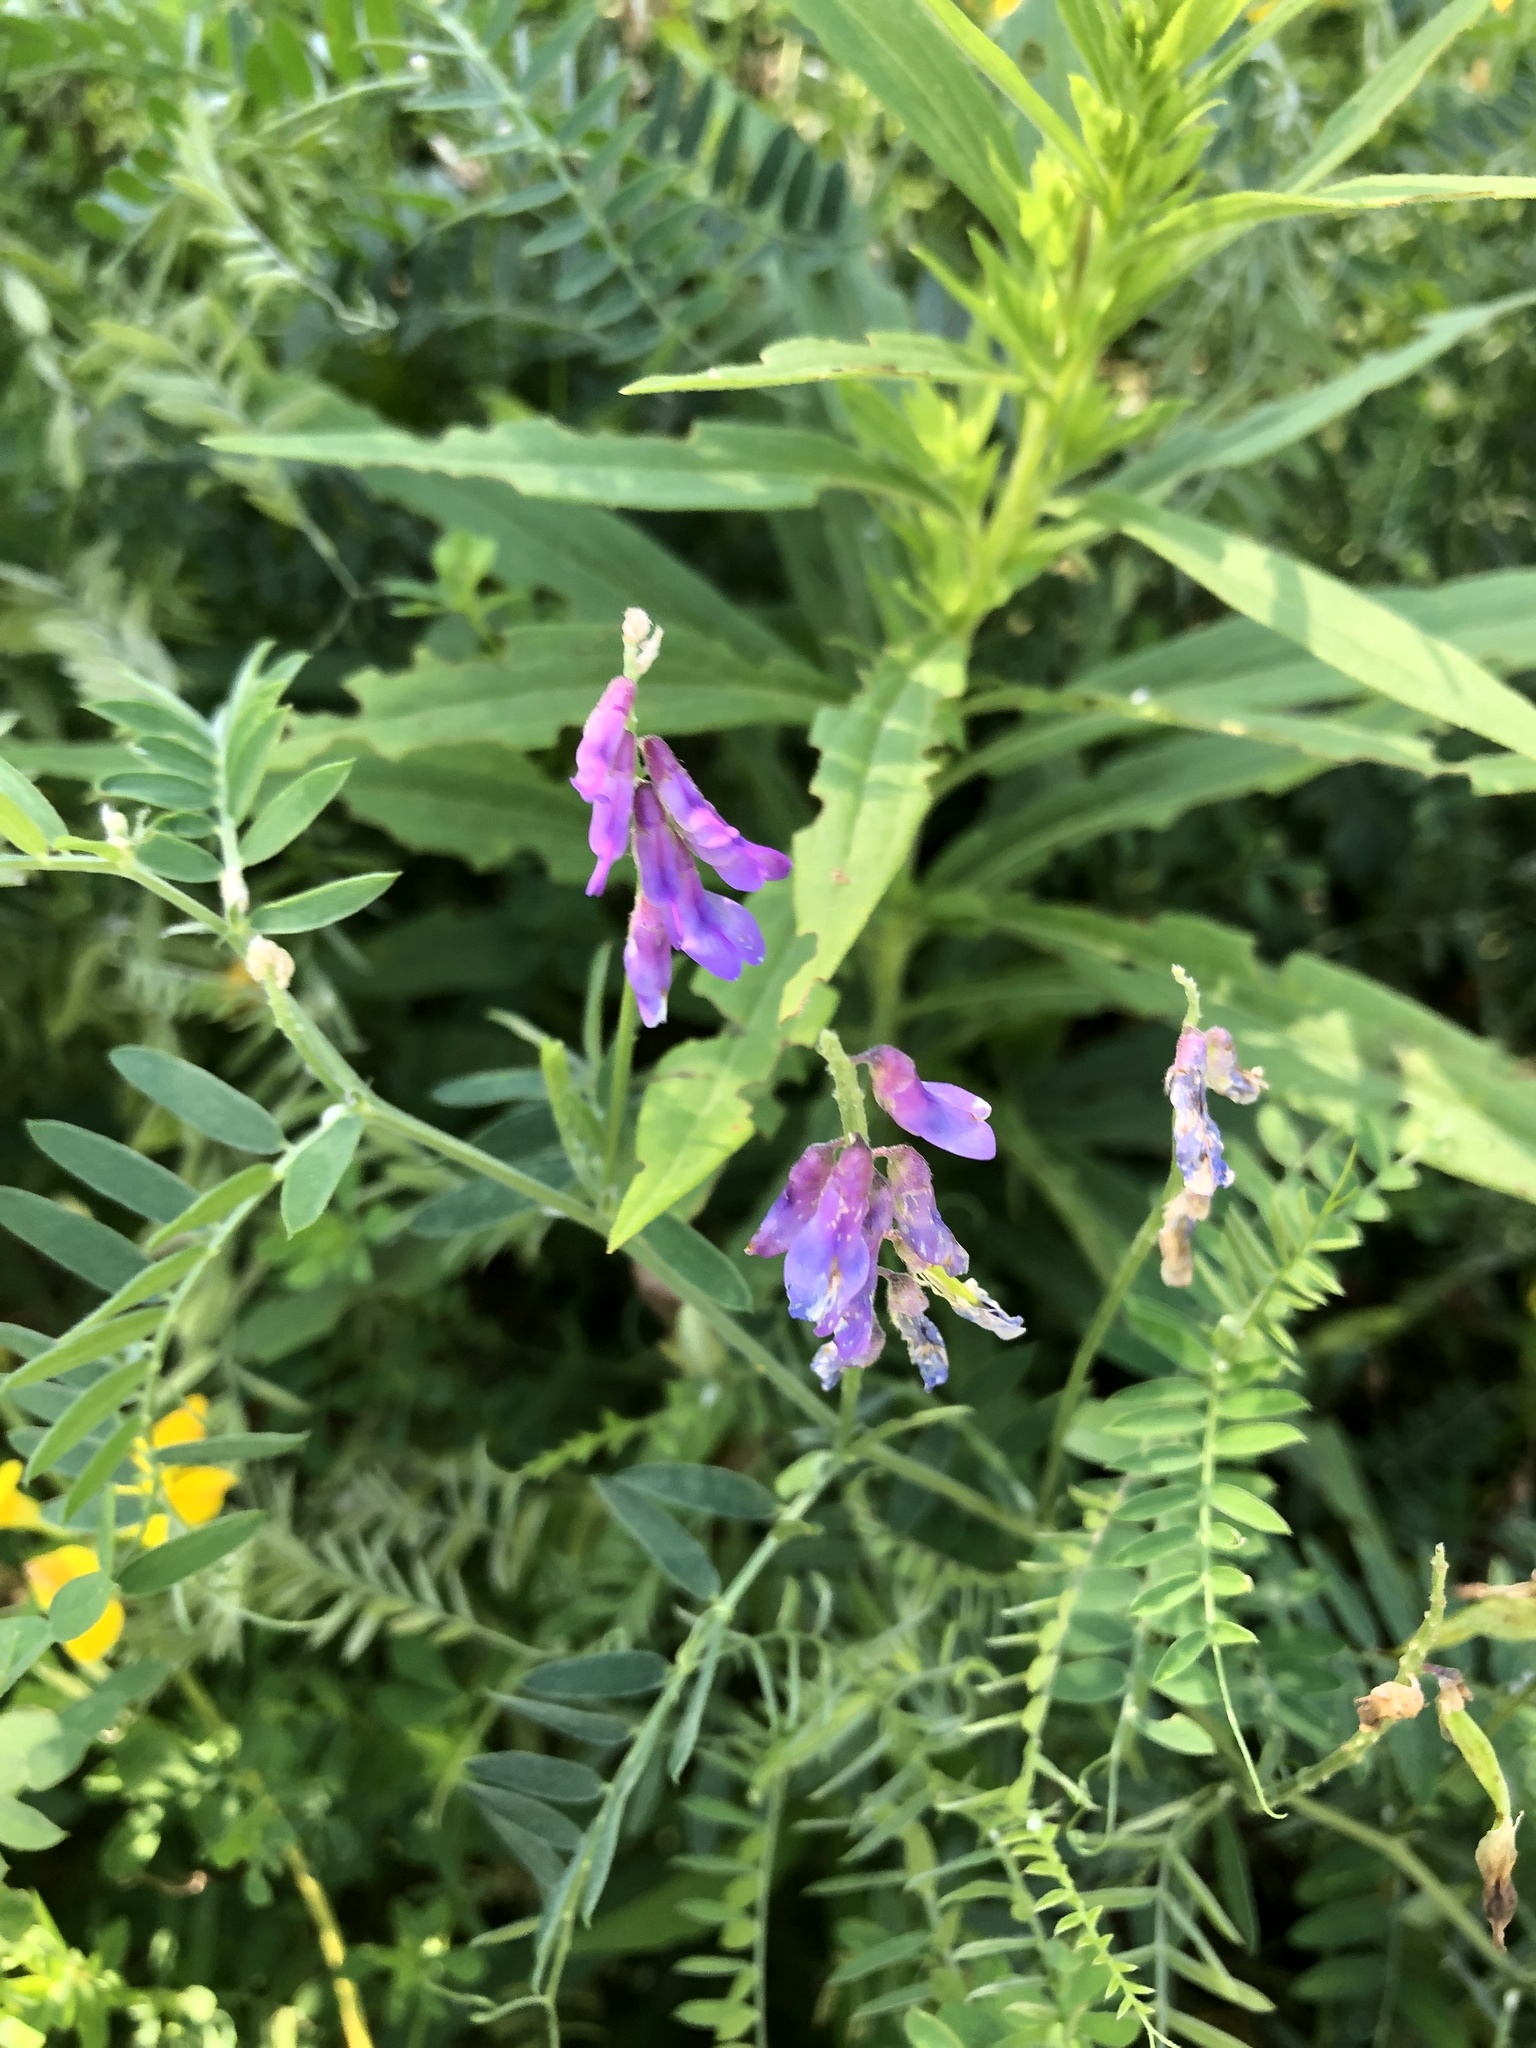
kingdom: Plantae
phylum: Tracheophyta
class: Magnoliopsida
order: Fabales
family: Fabaceae
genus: Vicia
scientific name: Vicia cracca
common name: Bird vetch
